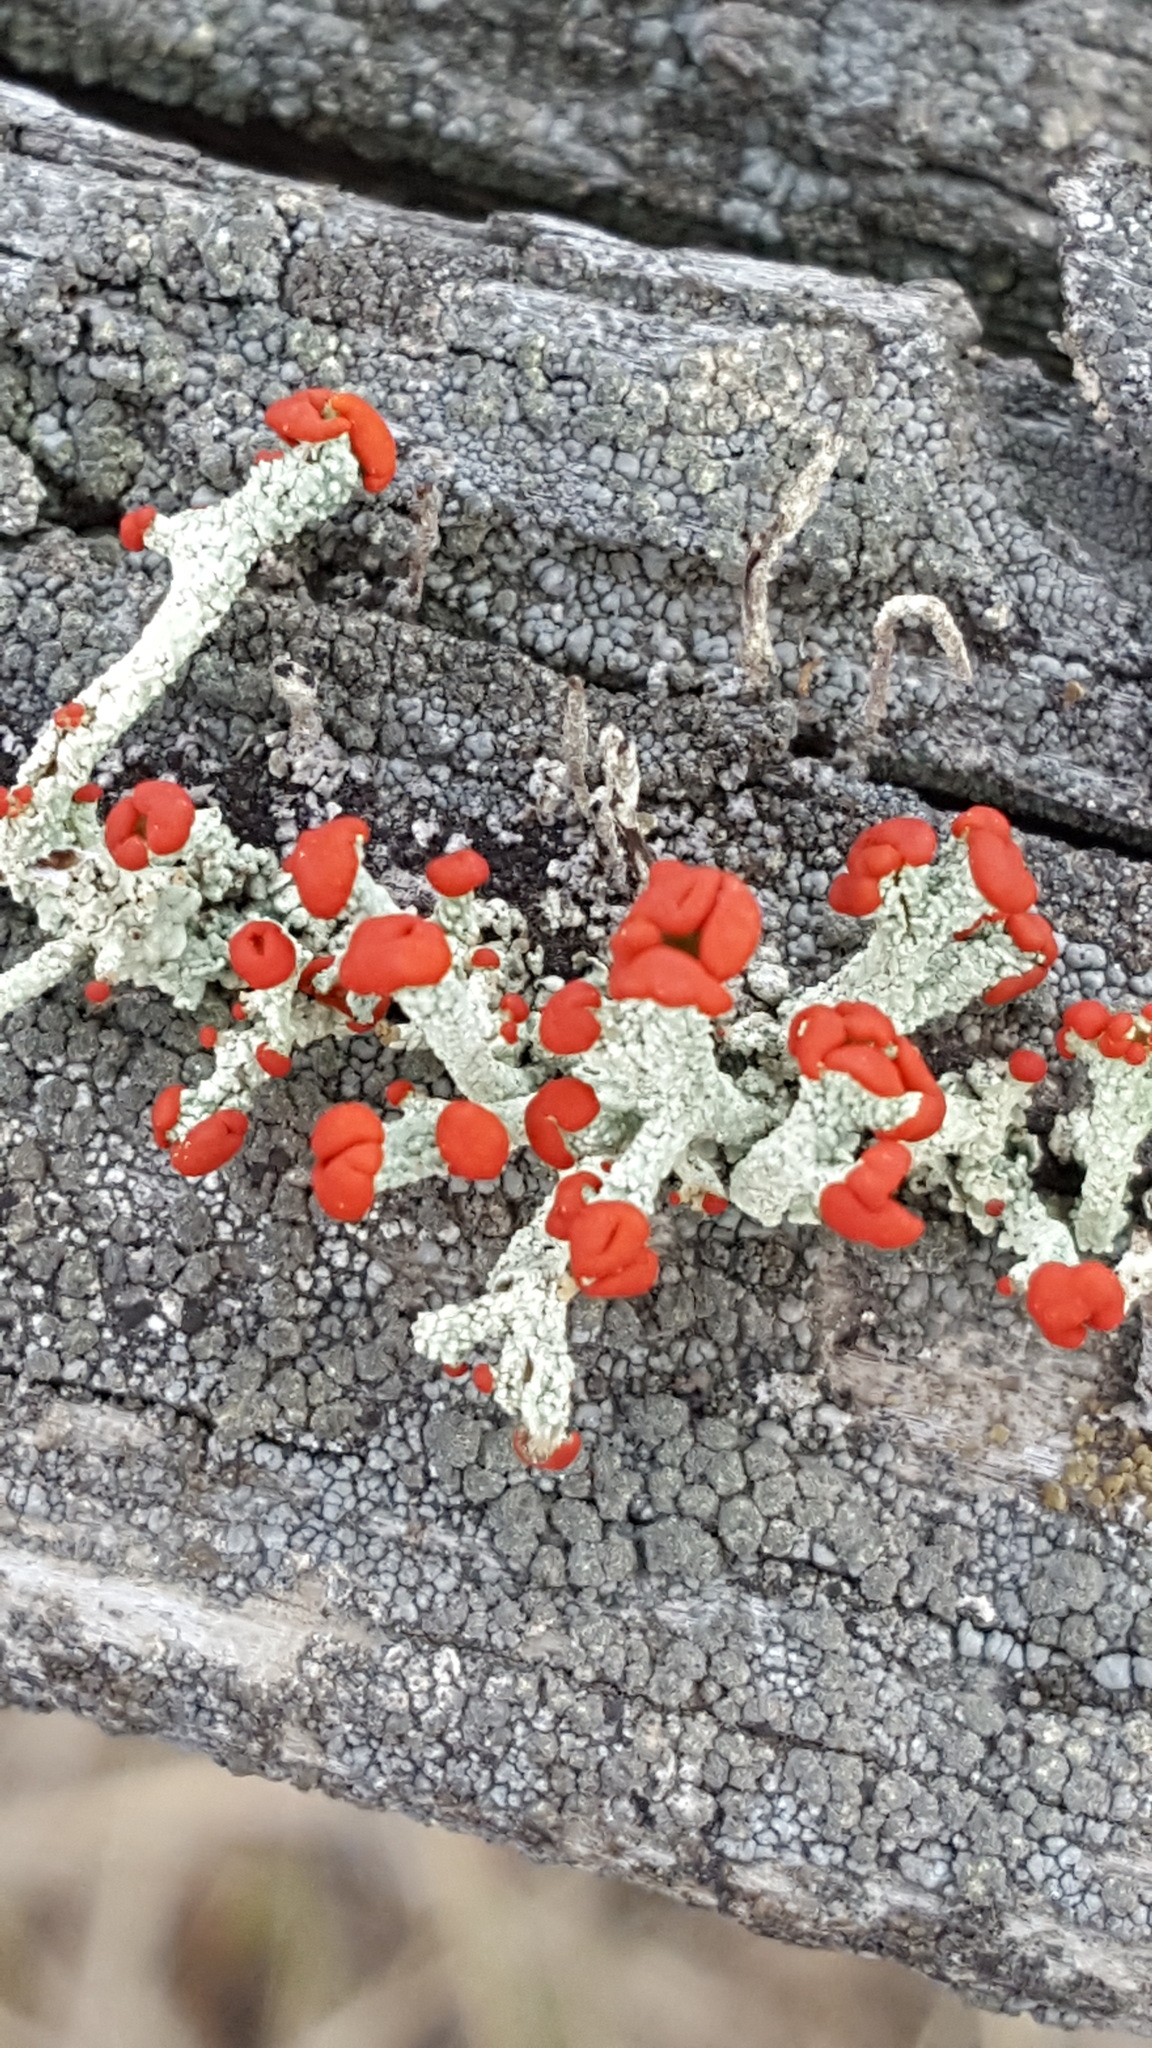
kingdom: Fungi
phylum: Ascomycota
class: Lecanoromycetes
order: Lecanorales
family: Cladoniaceae
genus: Cladonia
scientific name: Cladonia cristatella
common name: British soldier lichen
